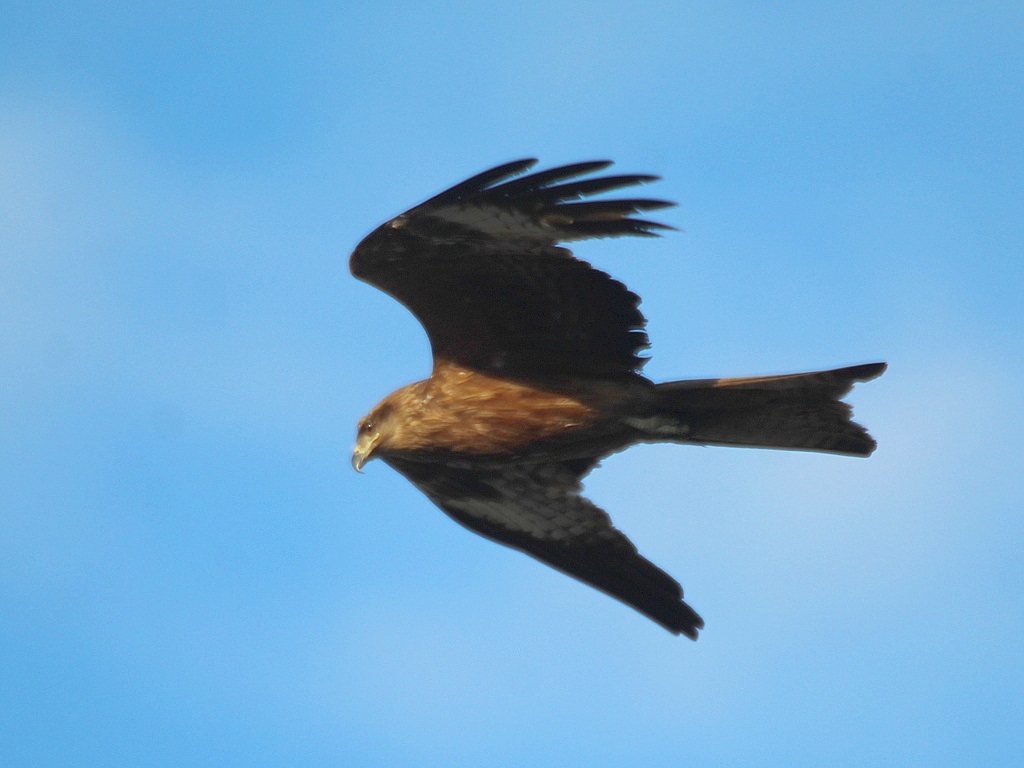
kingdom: Animalia
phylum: Chordata
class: Aves
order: Accipitriformes
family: Accipitridae
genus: Milvus
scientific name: Milvus migrans
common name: Black kite
